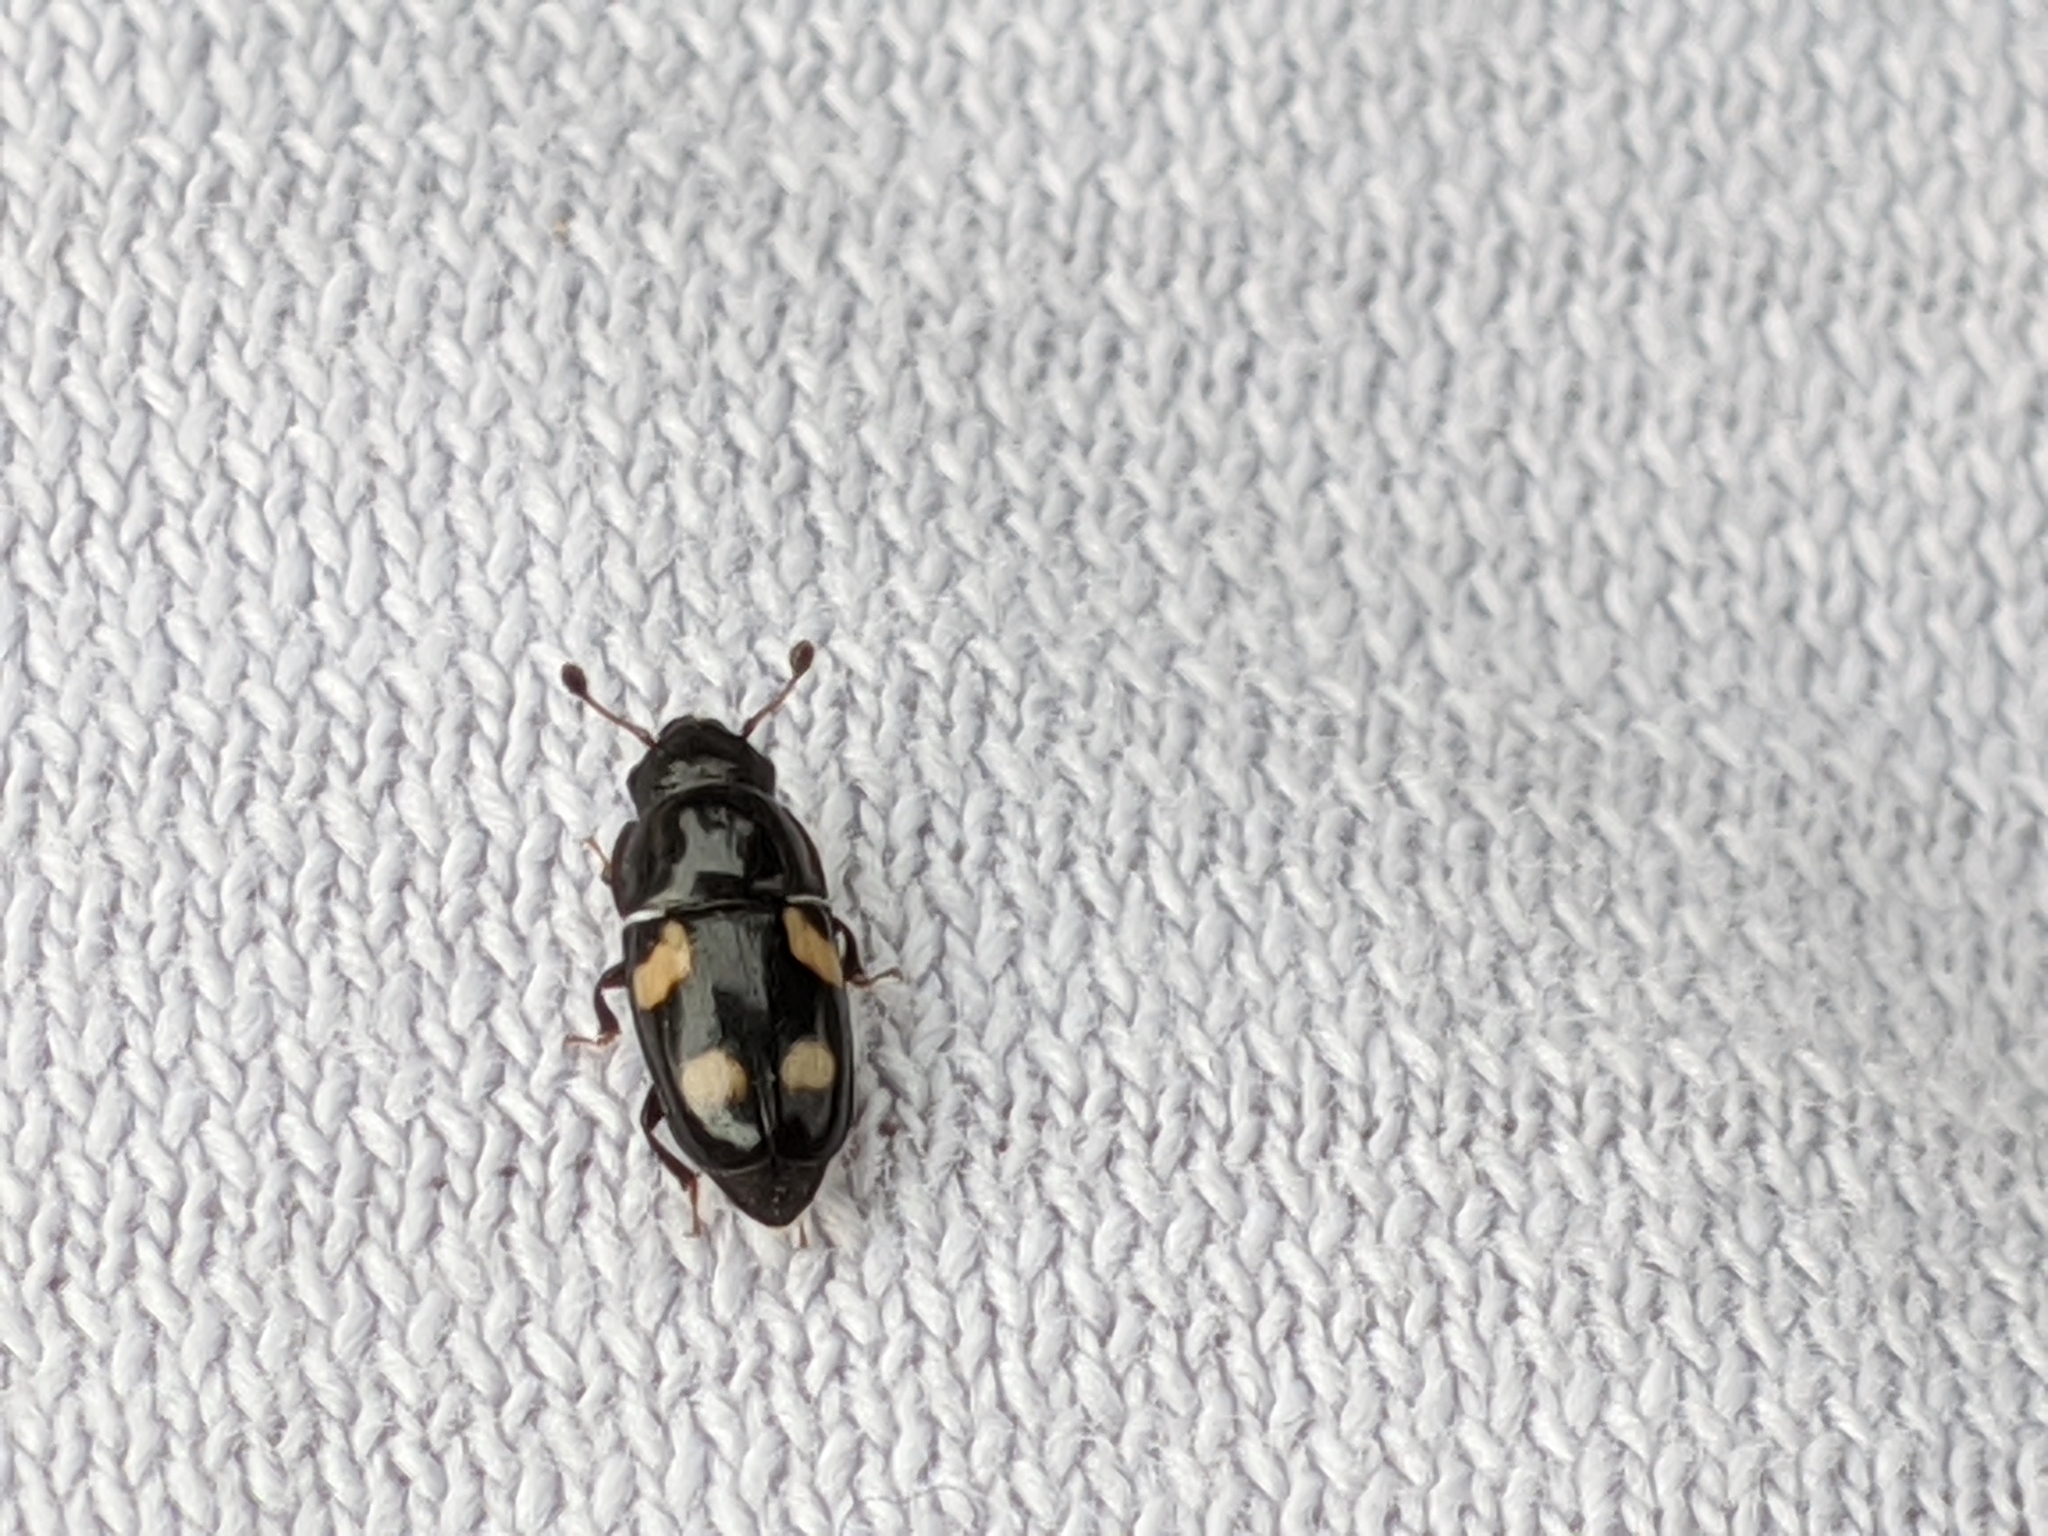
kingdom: Animalia
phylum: Arthropoda
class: Insecta
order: Coleoptera
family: Nitidulidae
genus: Glischrochilus
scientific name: Glischrochilus quadrisignatus
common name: Picnic beetle
